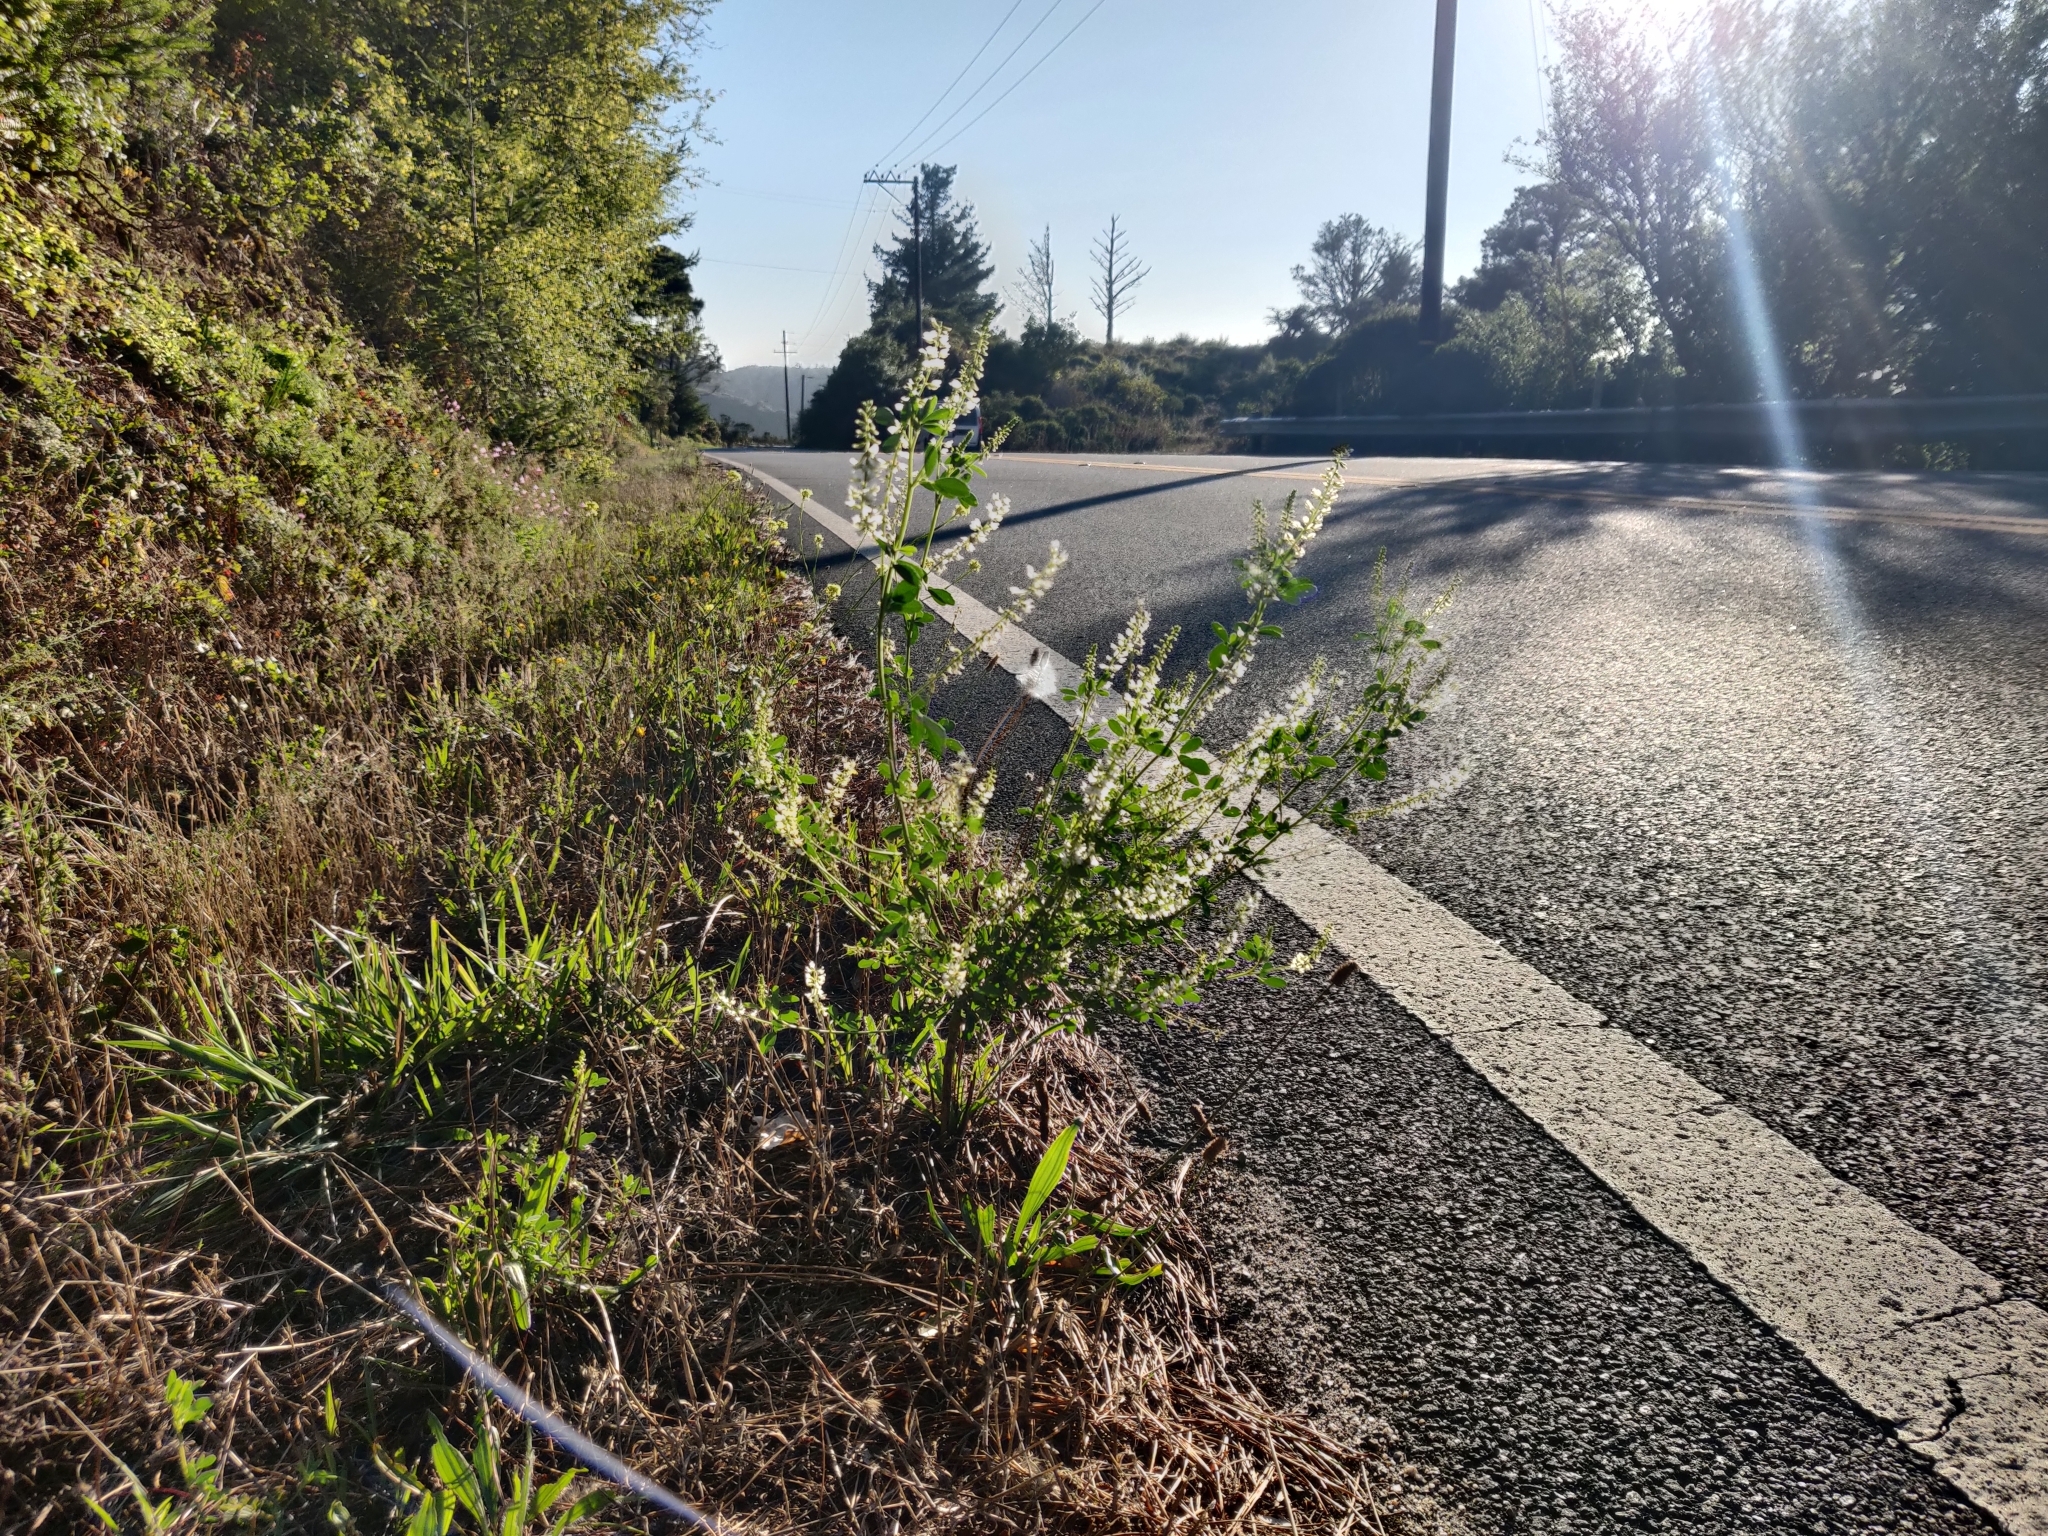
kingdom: Plantae
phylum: Tracheophyta
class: Magnoliopsida
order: Fabales
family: Fabaceae
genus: Melilotus
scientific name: Melilotus albus
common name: White melilot
